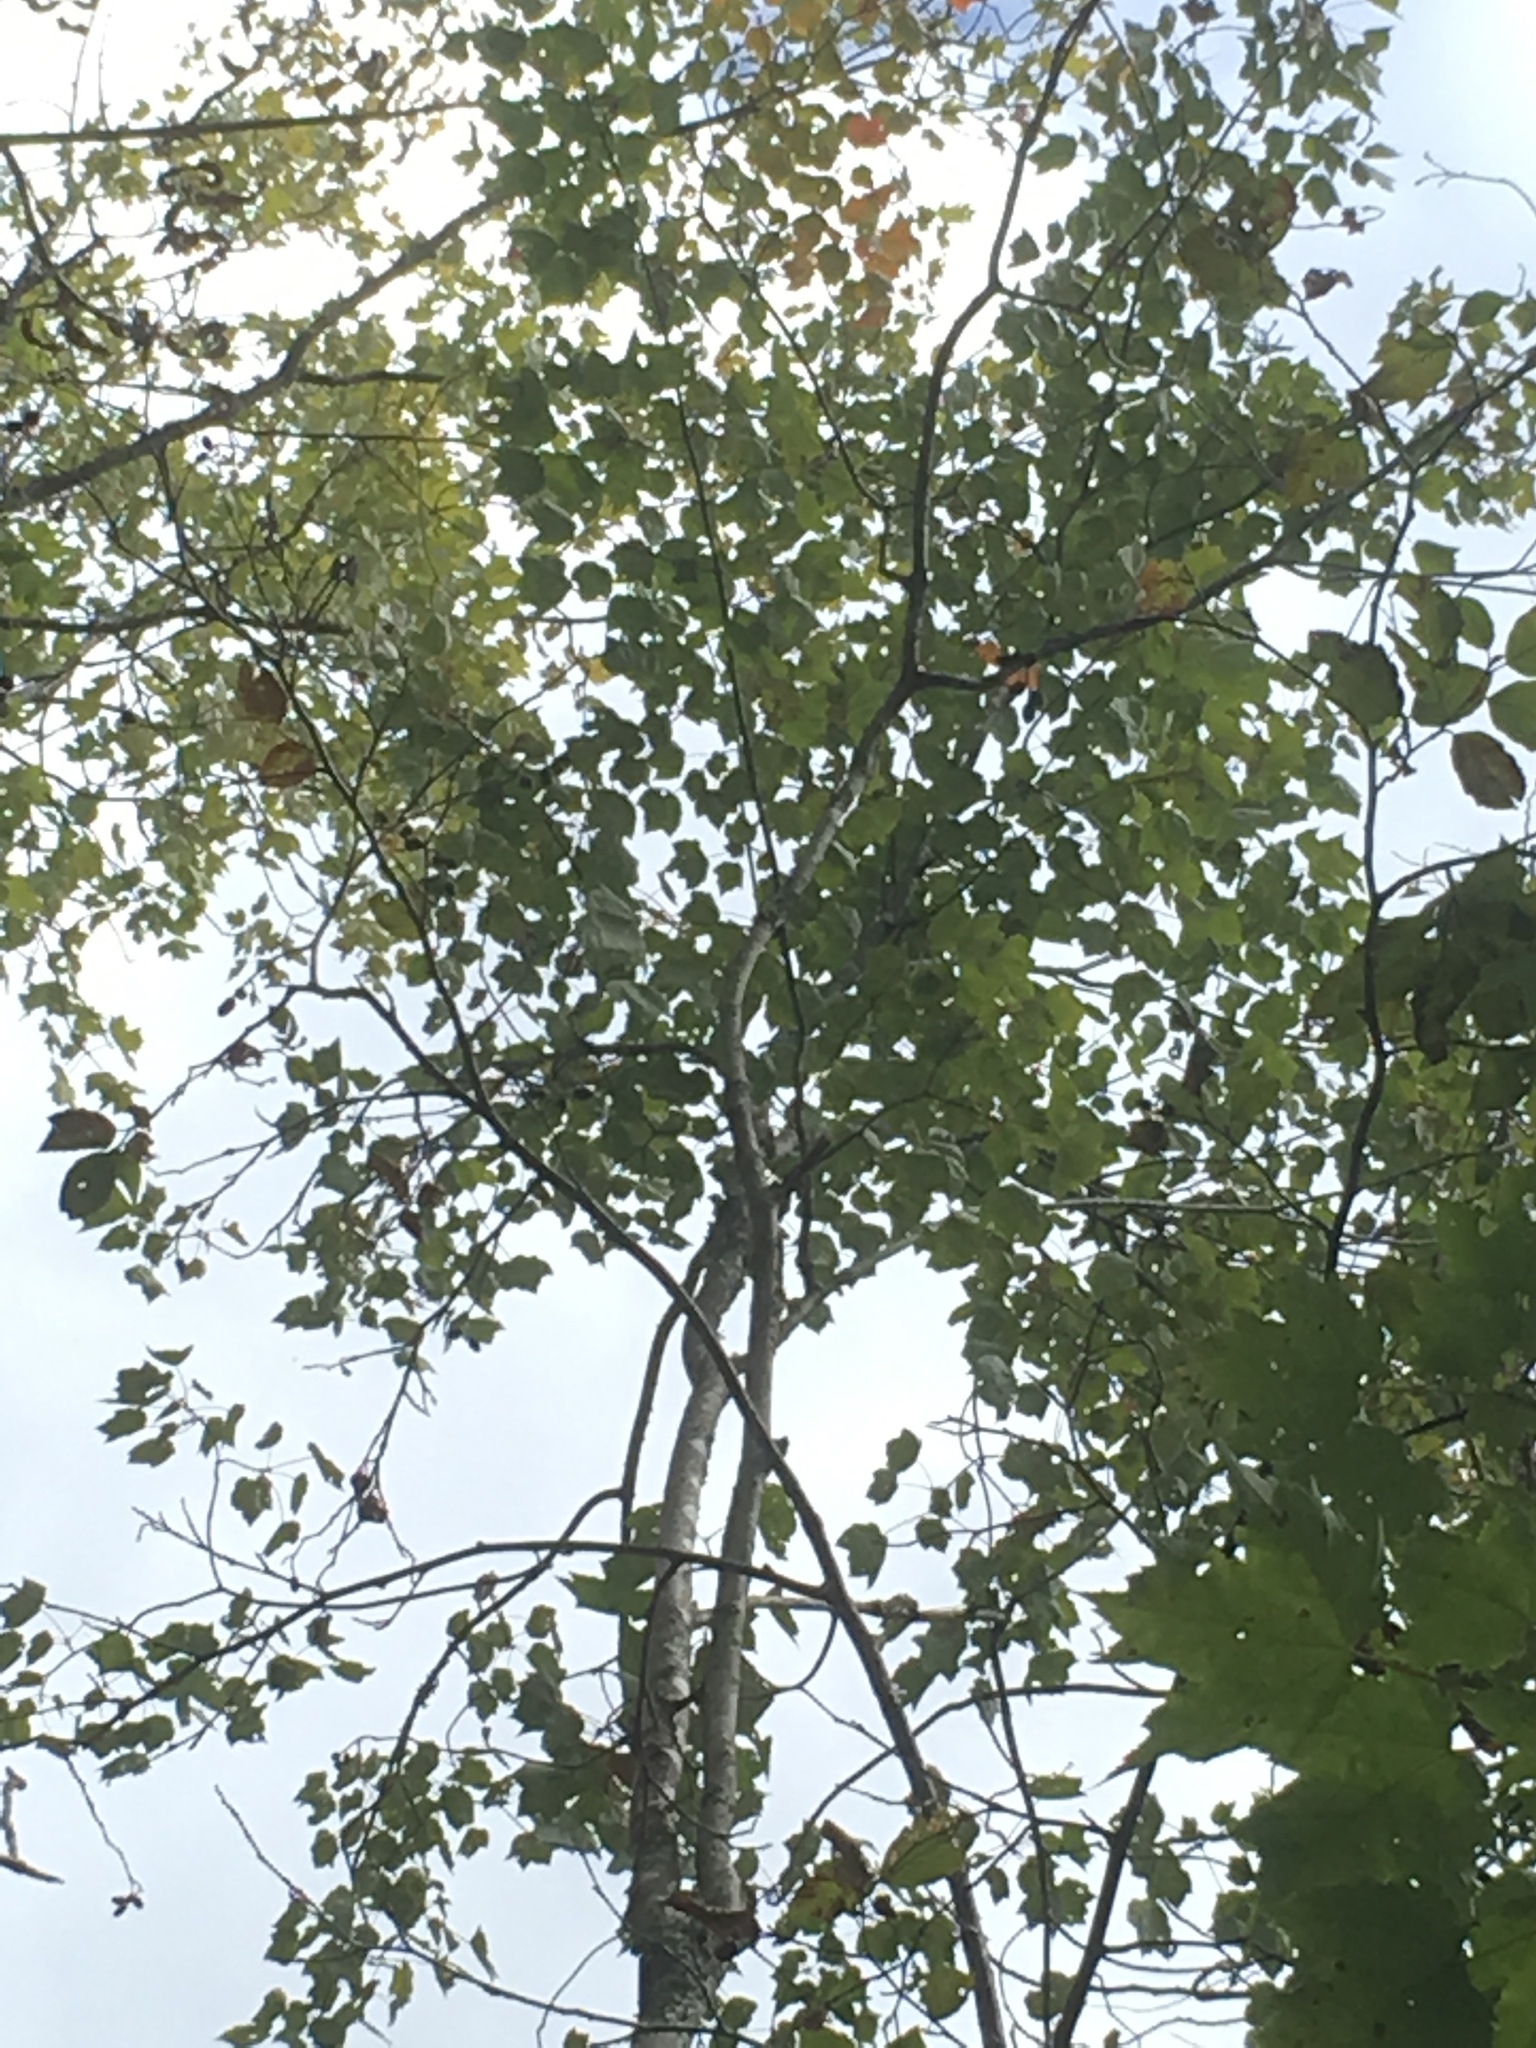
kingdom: Plantae
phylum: Tracheophyta
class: Magnoliopsida
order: Sapindales
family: Sapindaceae
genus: Acer
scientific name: Acer rubrum
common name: Red maple
